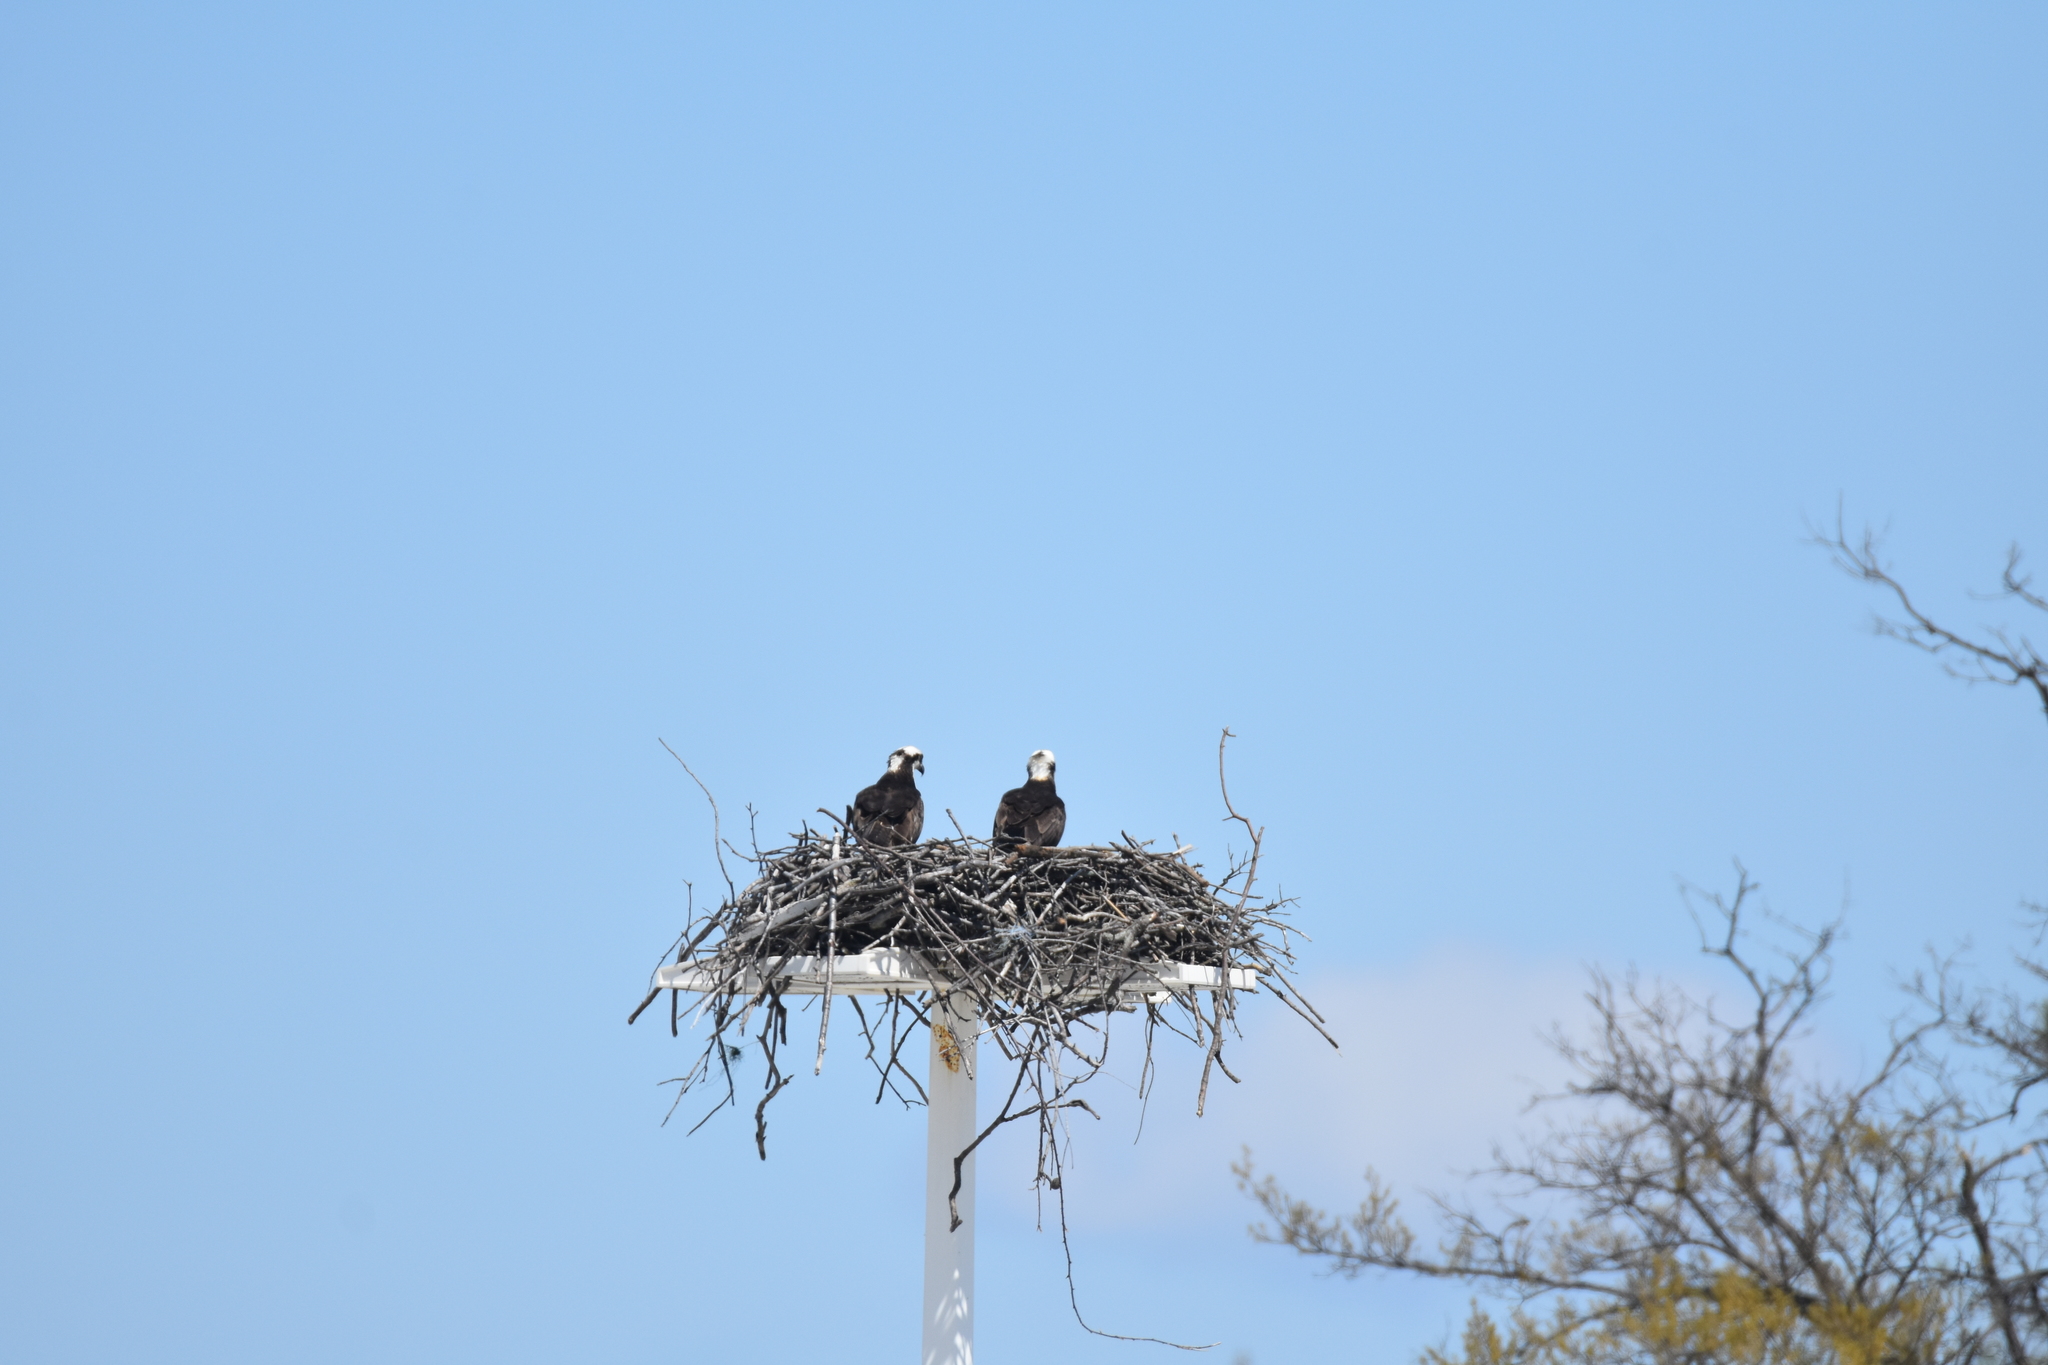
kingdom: Animalia
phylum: Chordata
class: Aves
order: Accipitriformes
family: Pandionidae
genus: Pandion
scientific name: Pandion haliaetus
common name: Osprey
